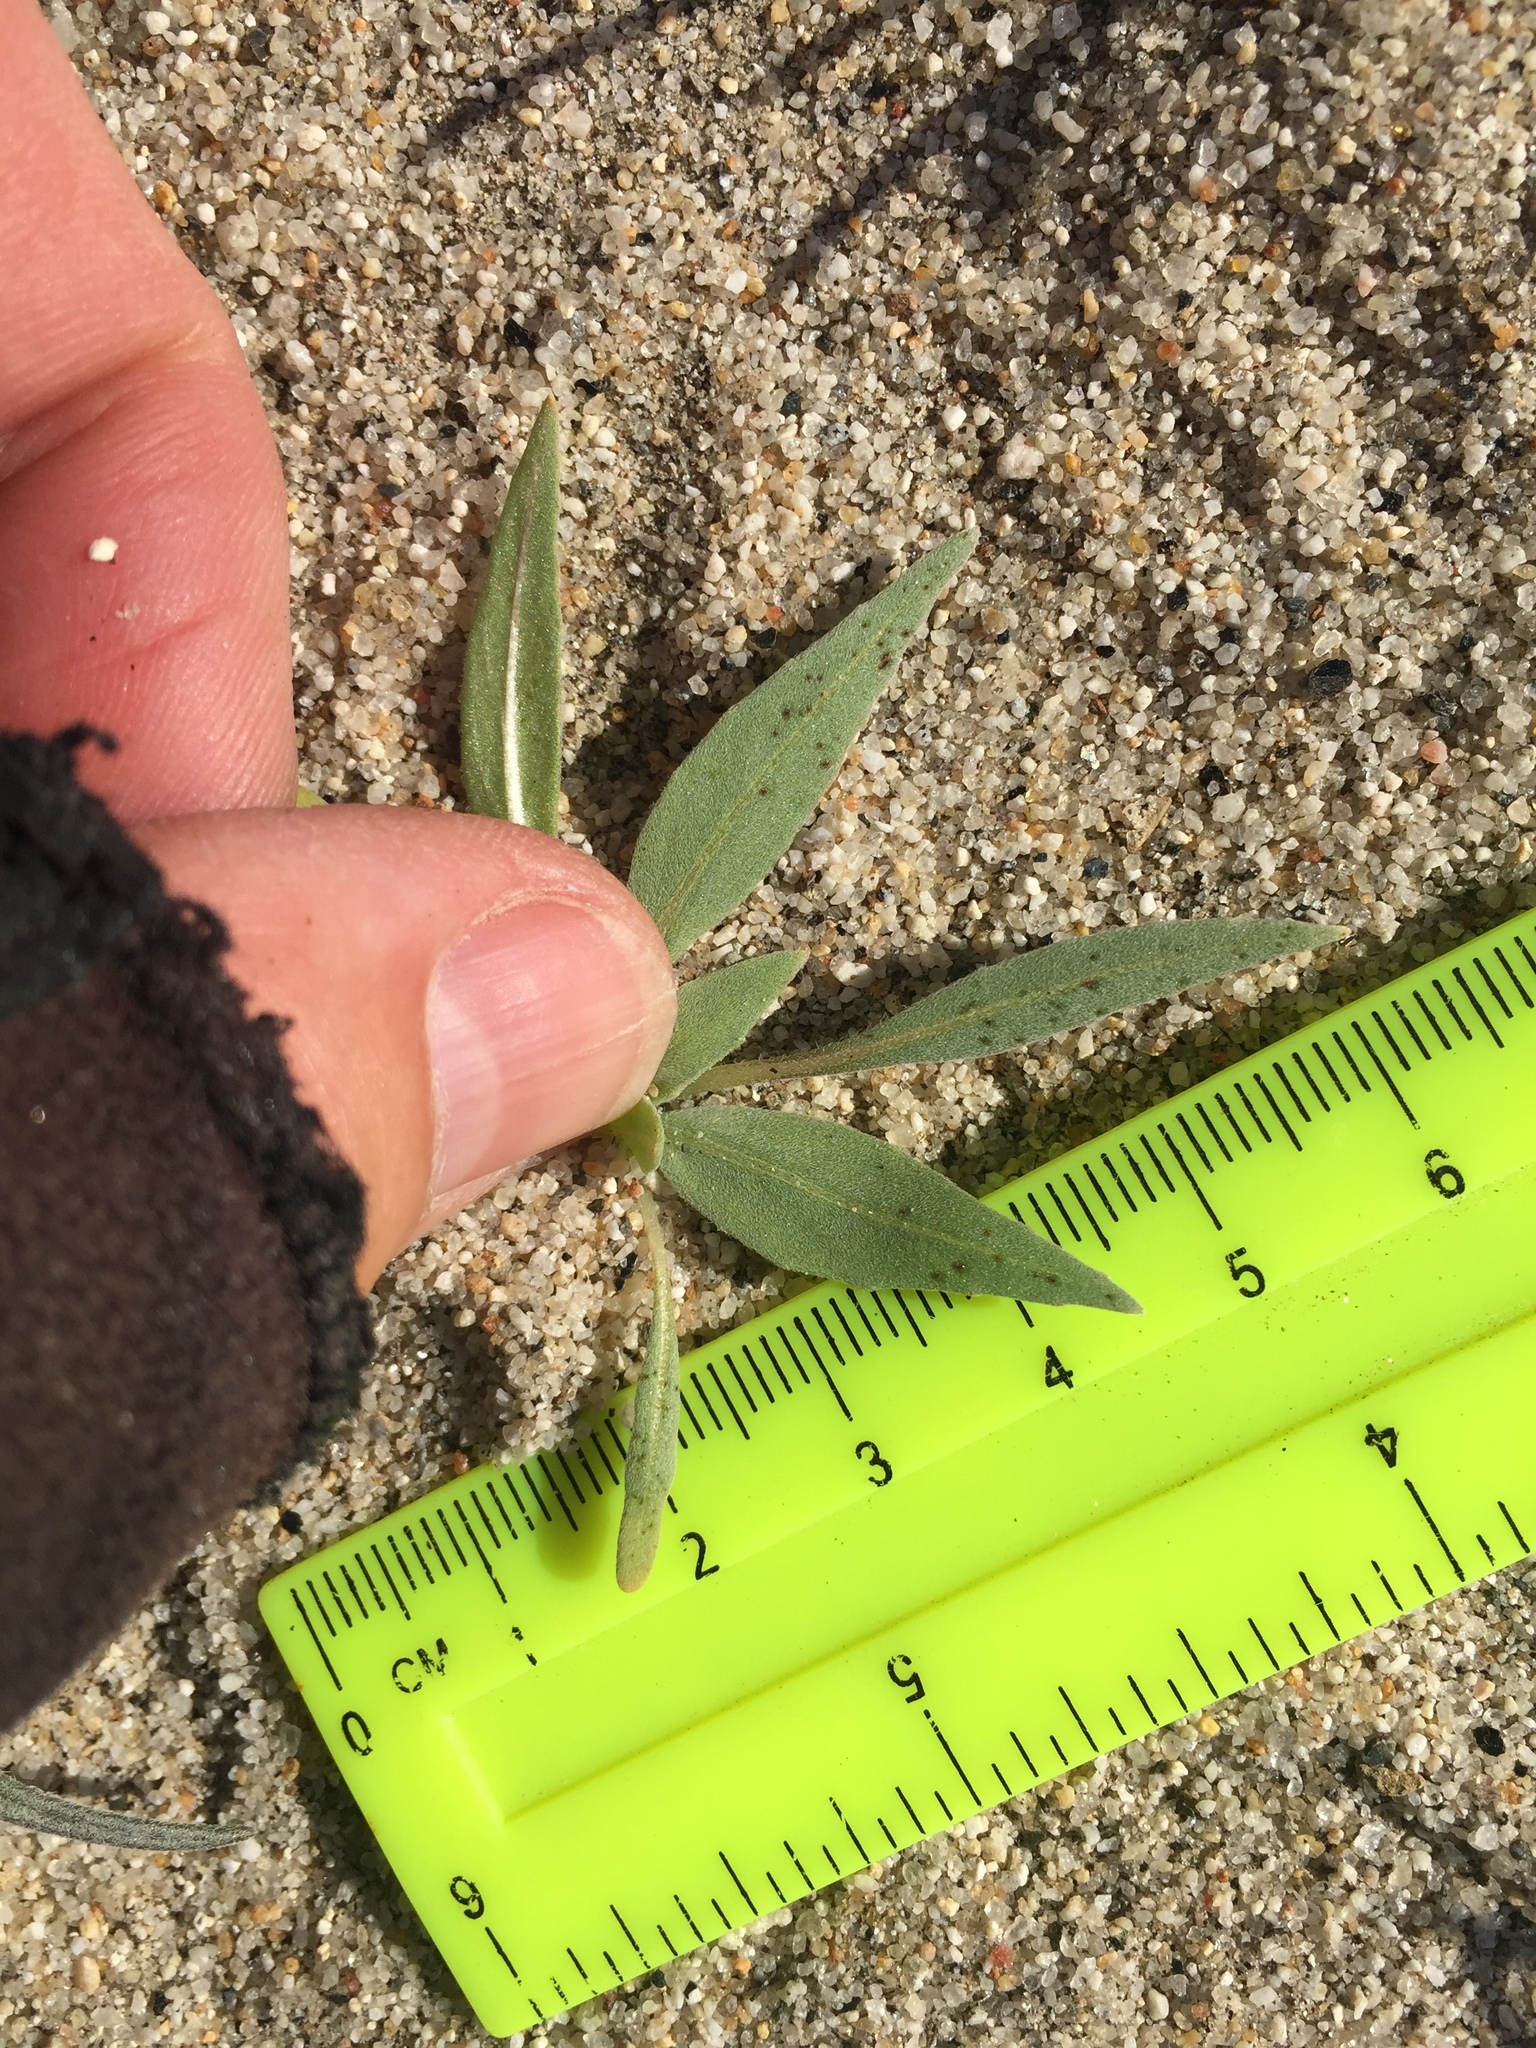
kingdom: Plantae
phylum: Tracheophyta
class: Magnoliopsida
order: Myrtales
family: Onagraceae
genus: Oenothera
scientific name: Oenothera deltoides
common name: Basket evening-primrose
